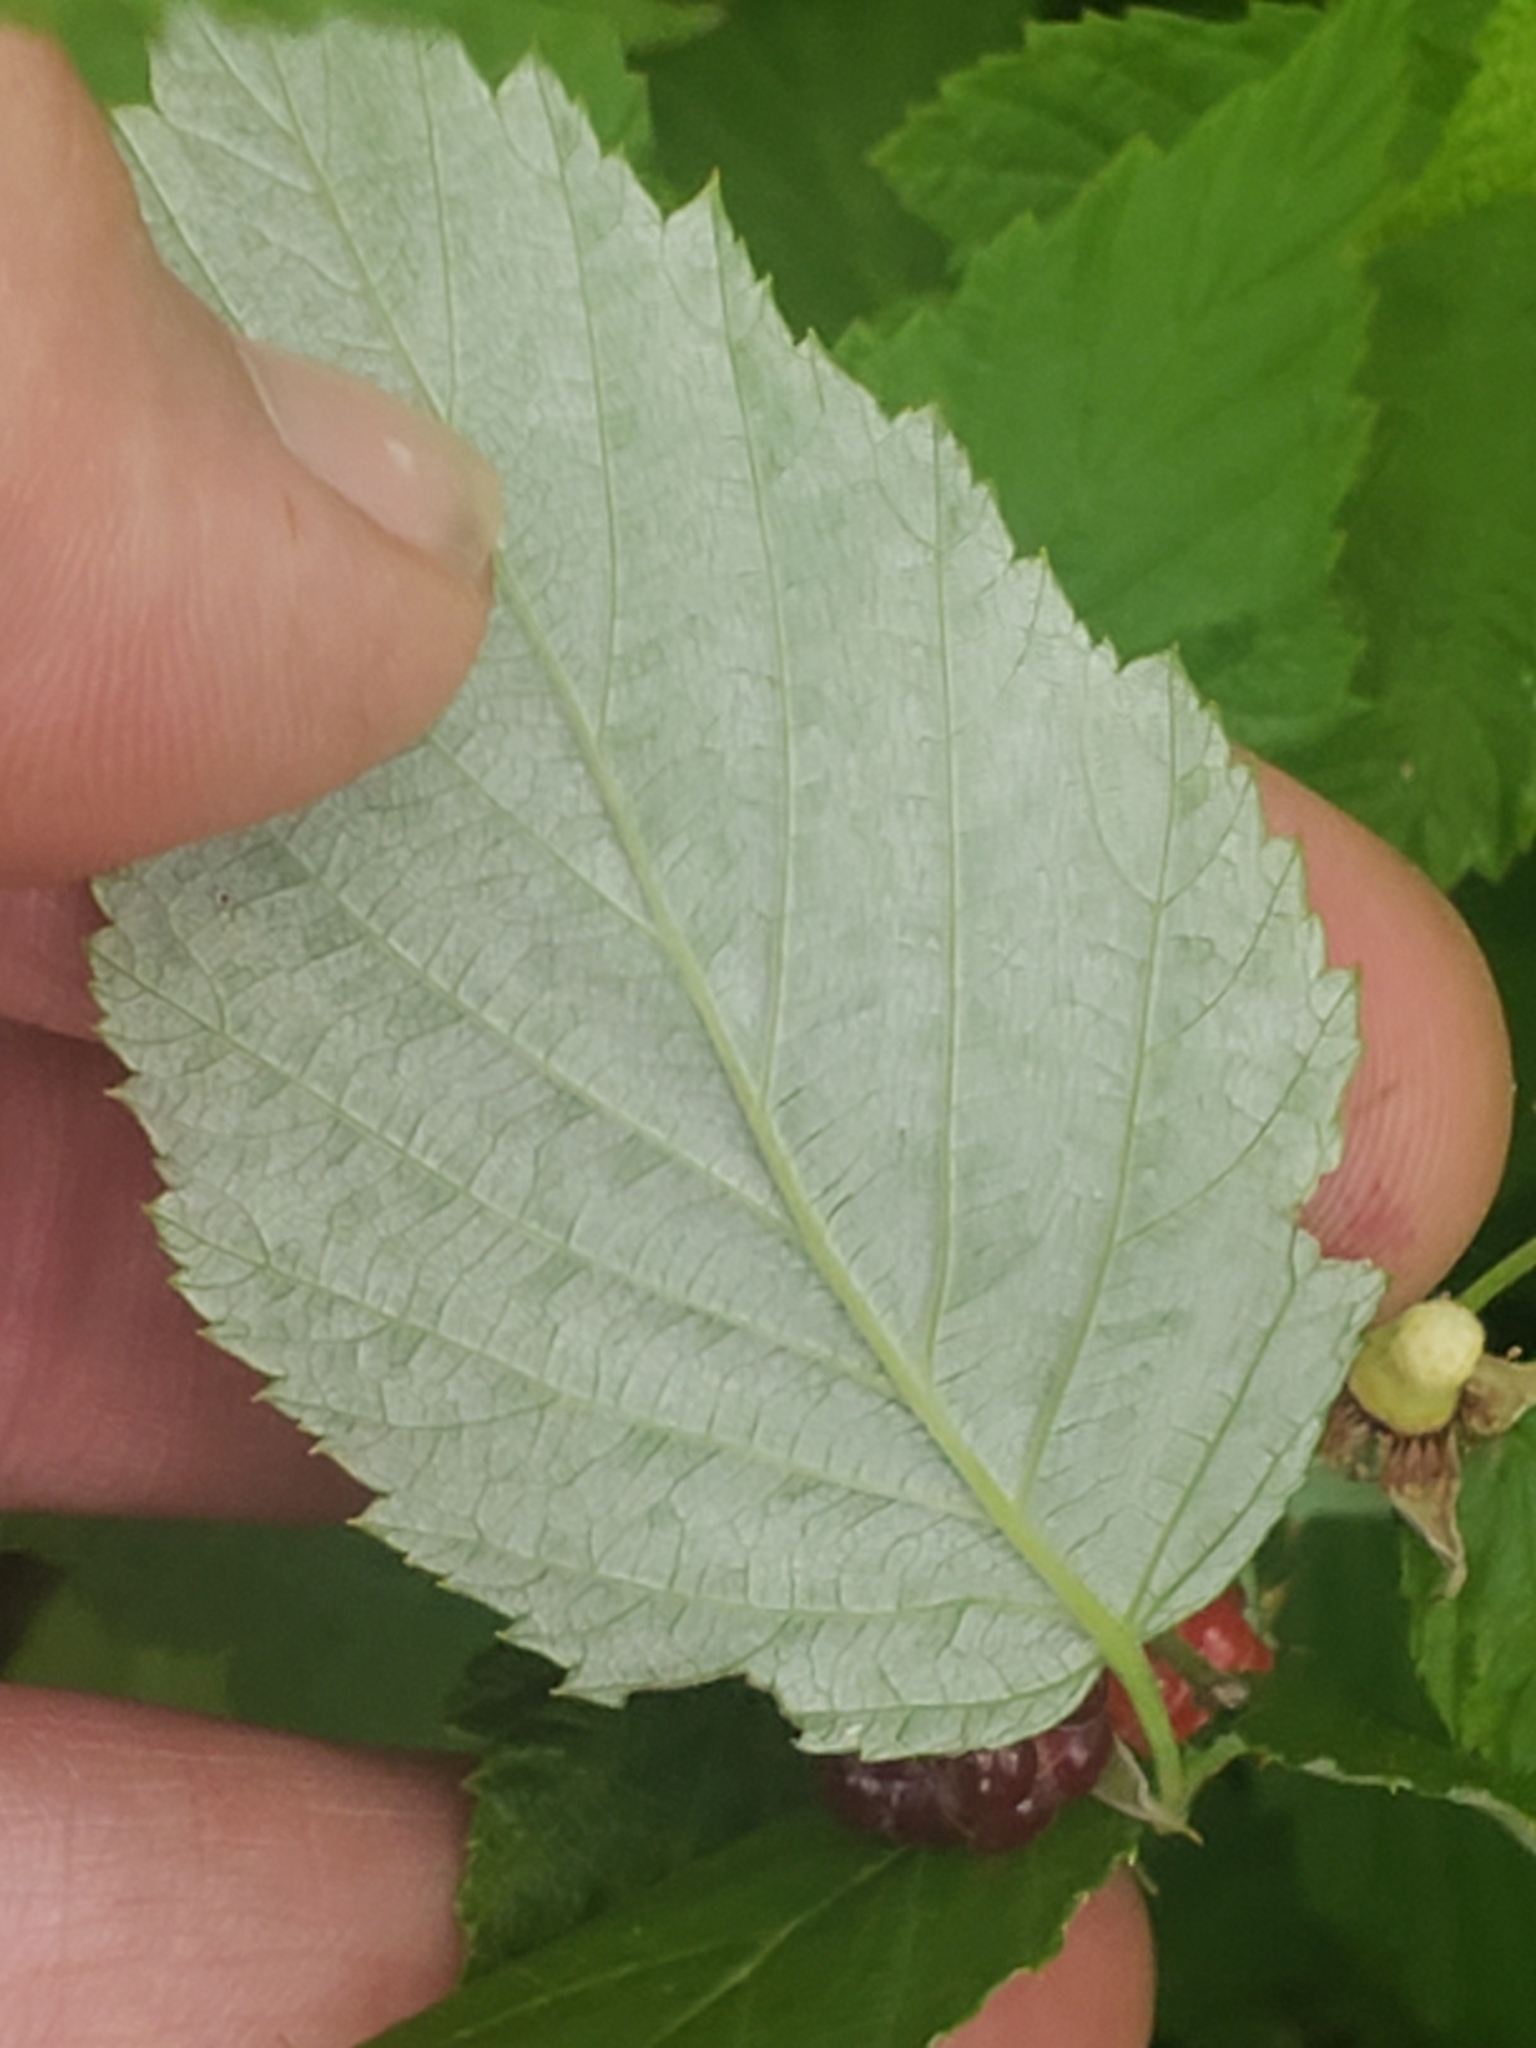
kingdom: Plantae
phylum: Tracheophyta
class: Magnoliopsida
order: Rosales
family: Rosaceae
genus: Rubus
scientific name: Rubus occidentalis
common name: Black raspberry
